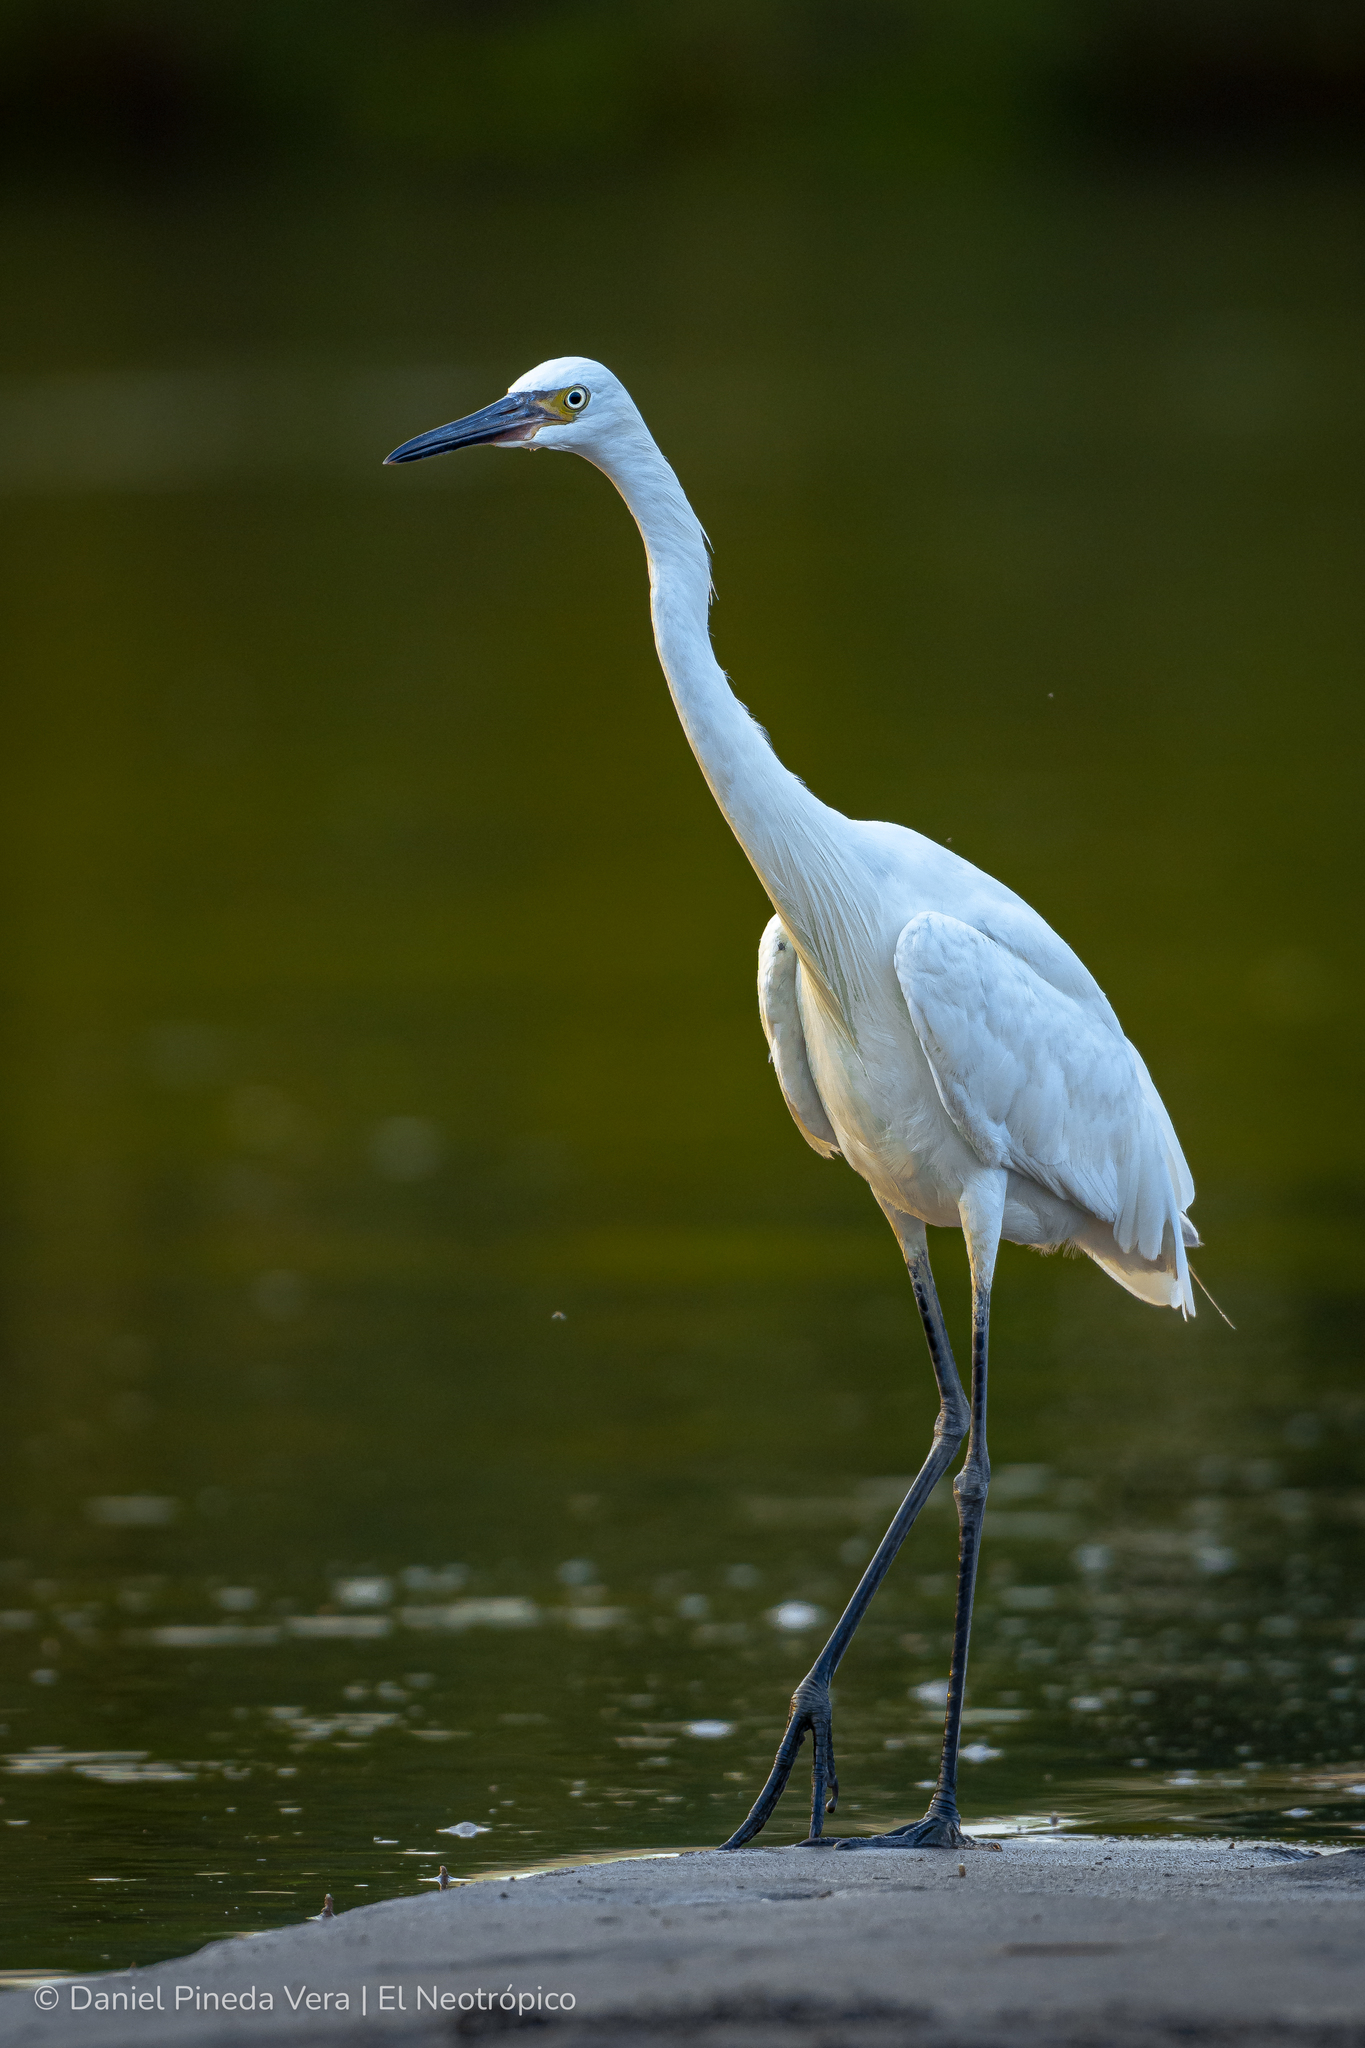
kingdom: Animalia
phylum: Chordata
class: Aves
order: Pelecaniformes
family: Ardeidae
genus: Egretta
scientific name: Egretta rufescens
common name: Reddish egret
